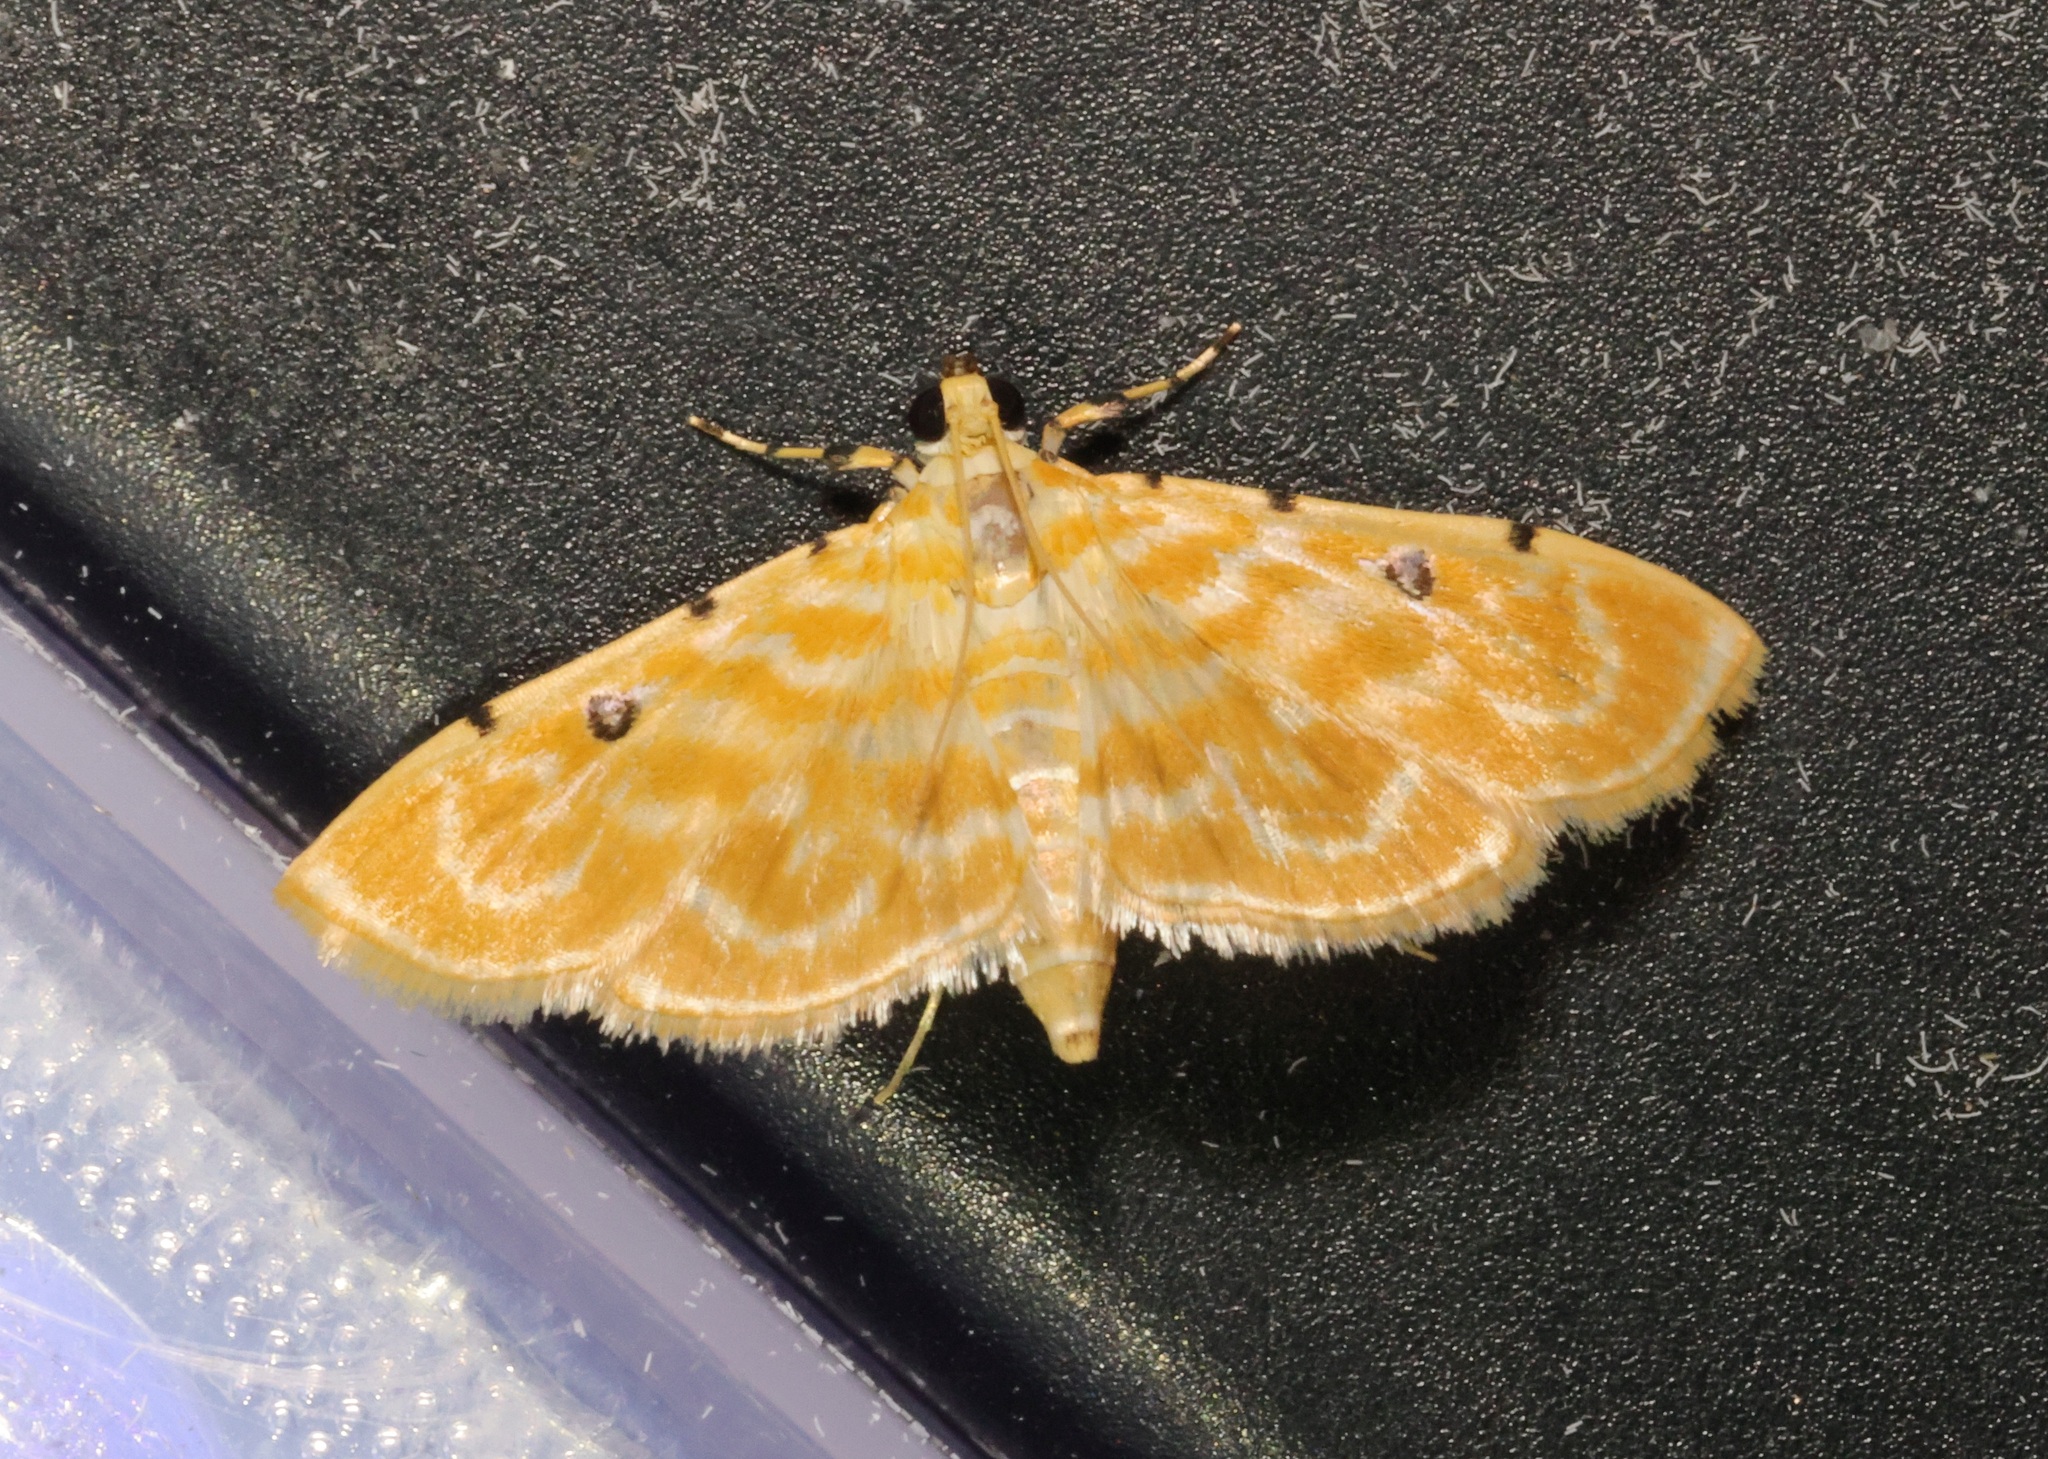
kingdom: Animalia
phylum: Arthropoda
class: Insecta
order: Lepidoptera
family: Crambidae
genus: Notarcha
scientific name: Notarcha aurolinealis
